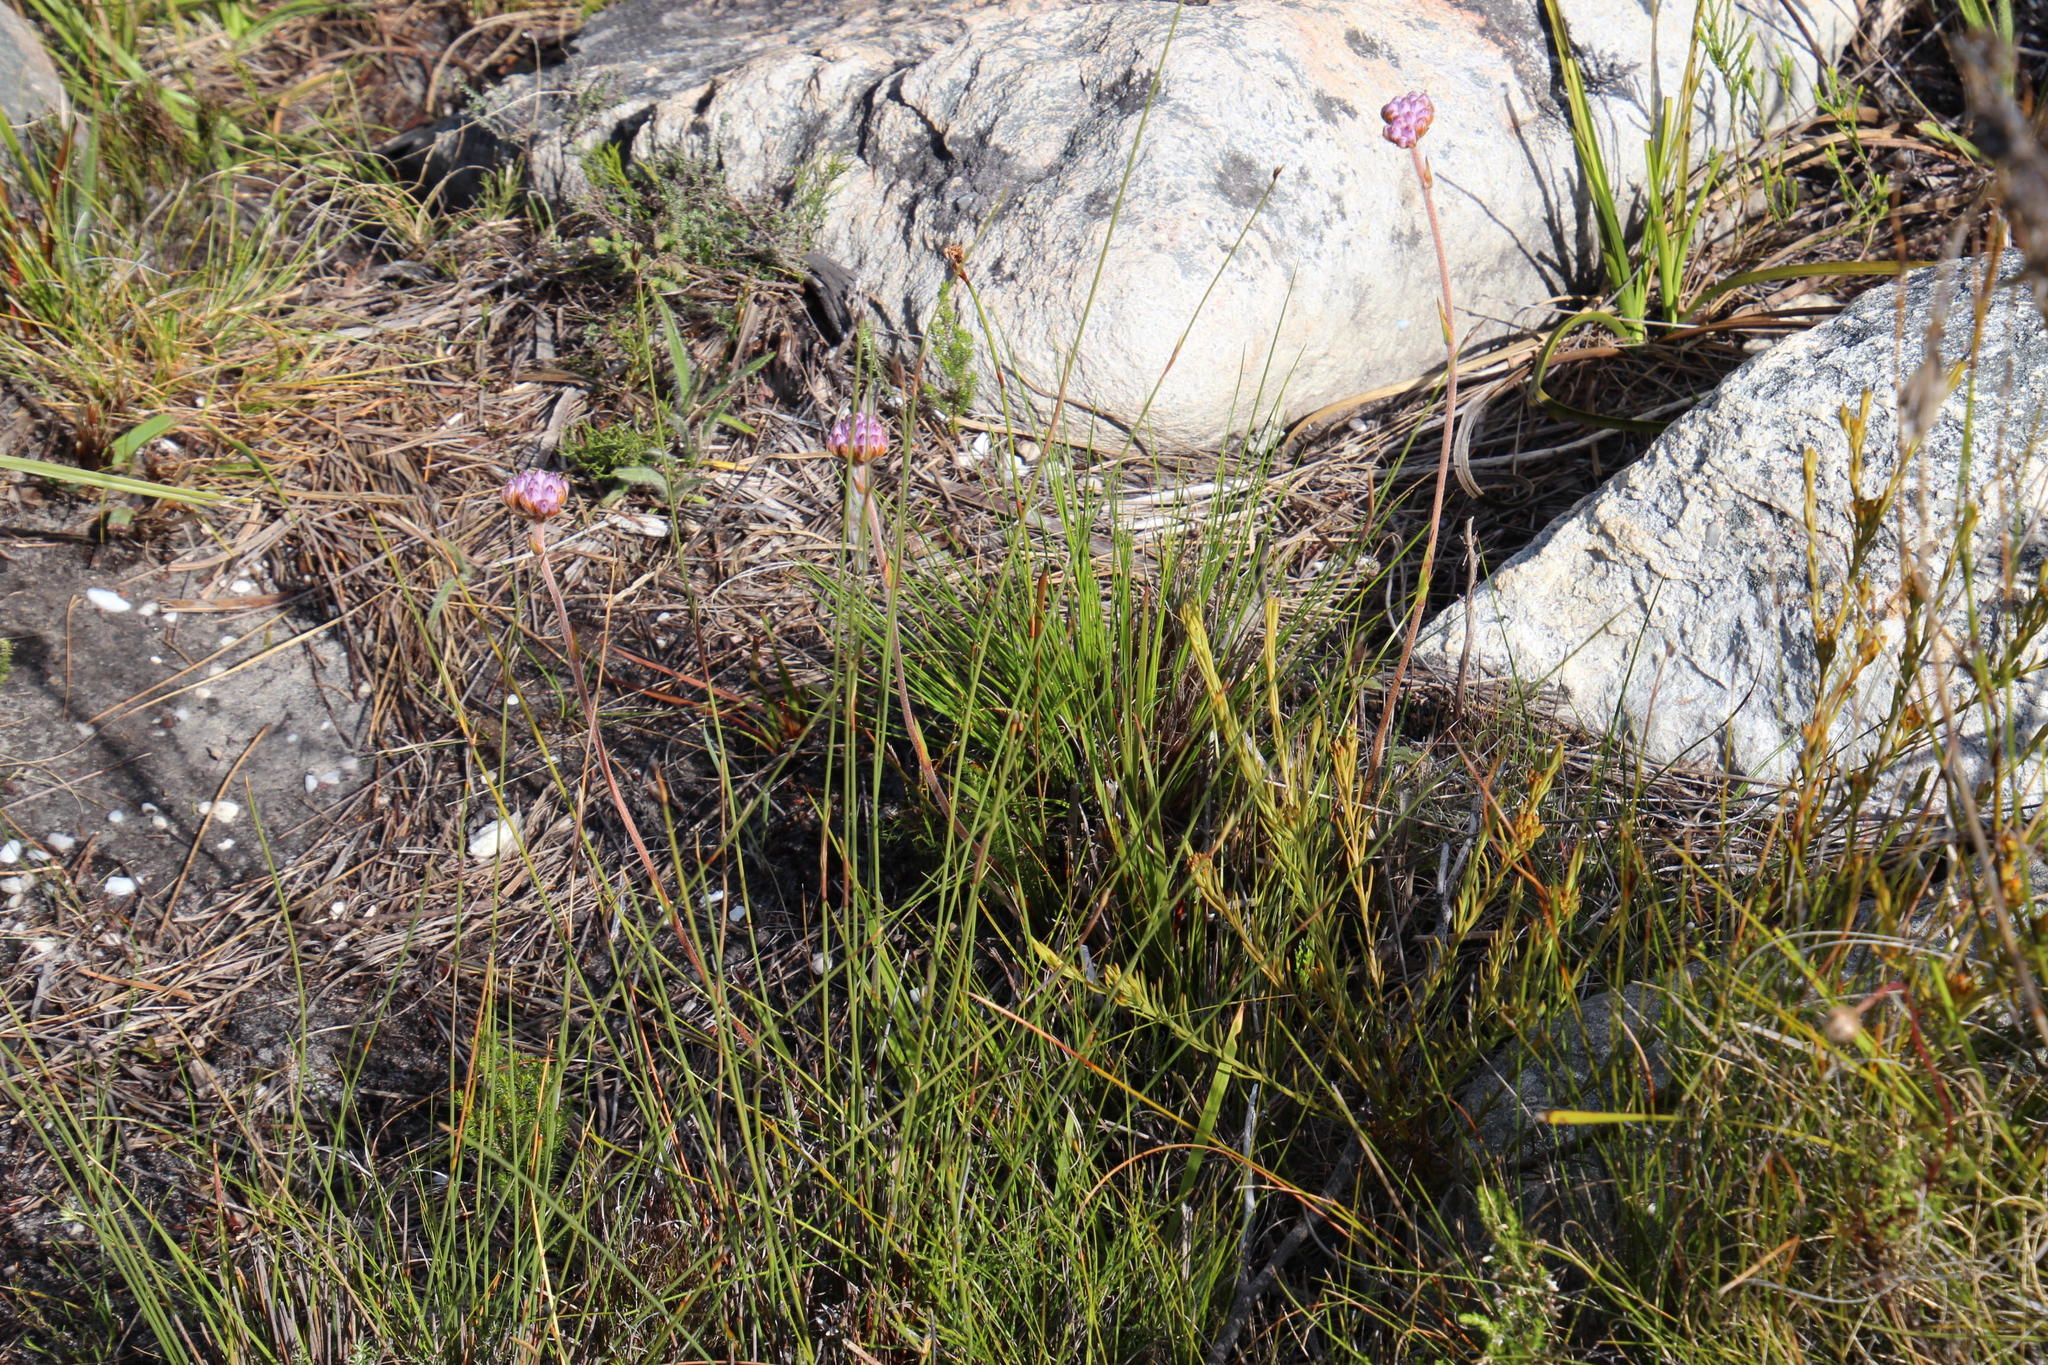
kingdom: Plantae
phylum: Tracheophyta
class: Liliopsida
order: Commelinales
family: Haemodoraceae
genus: Dilatris
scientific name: Dilatris pillansii
